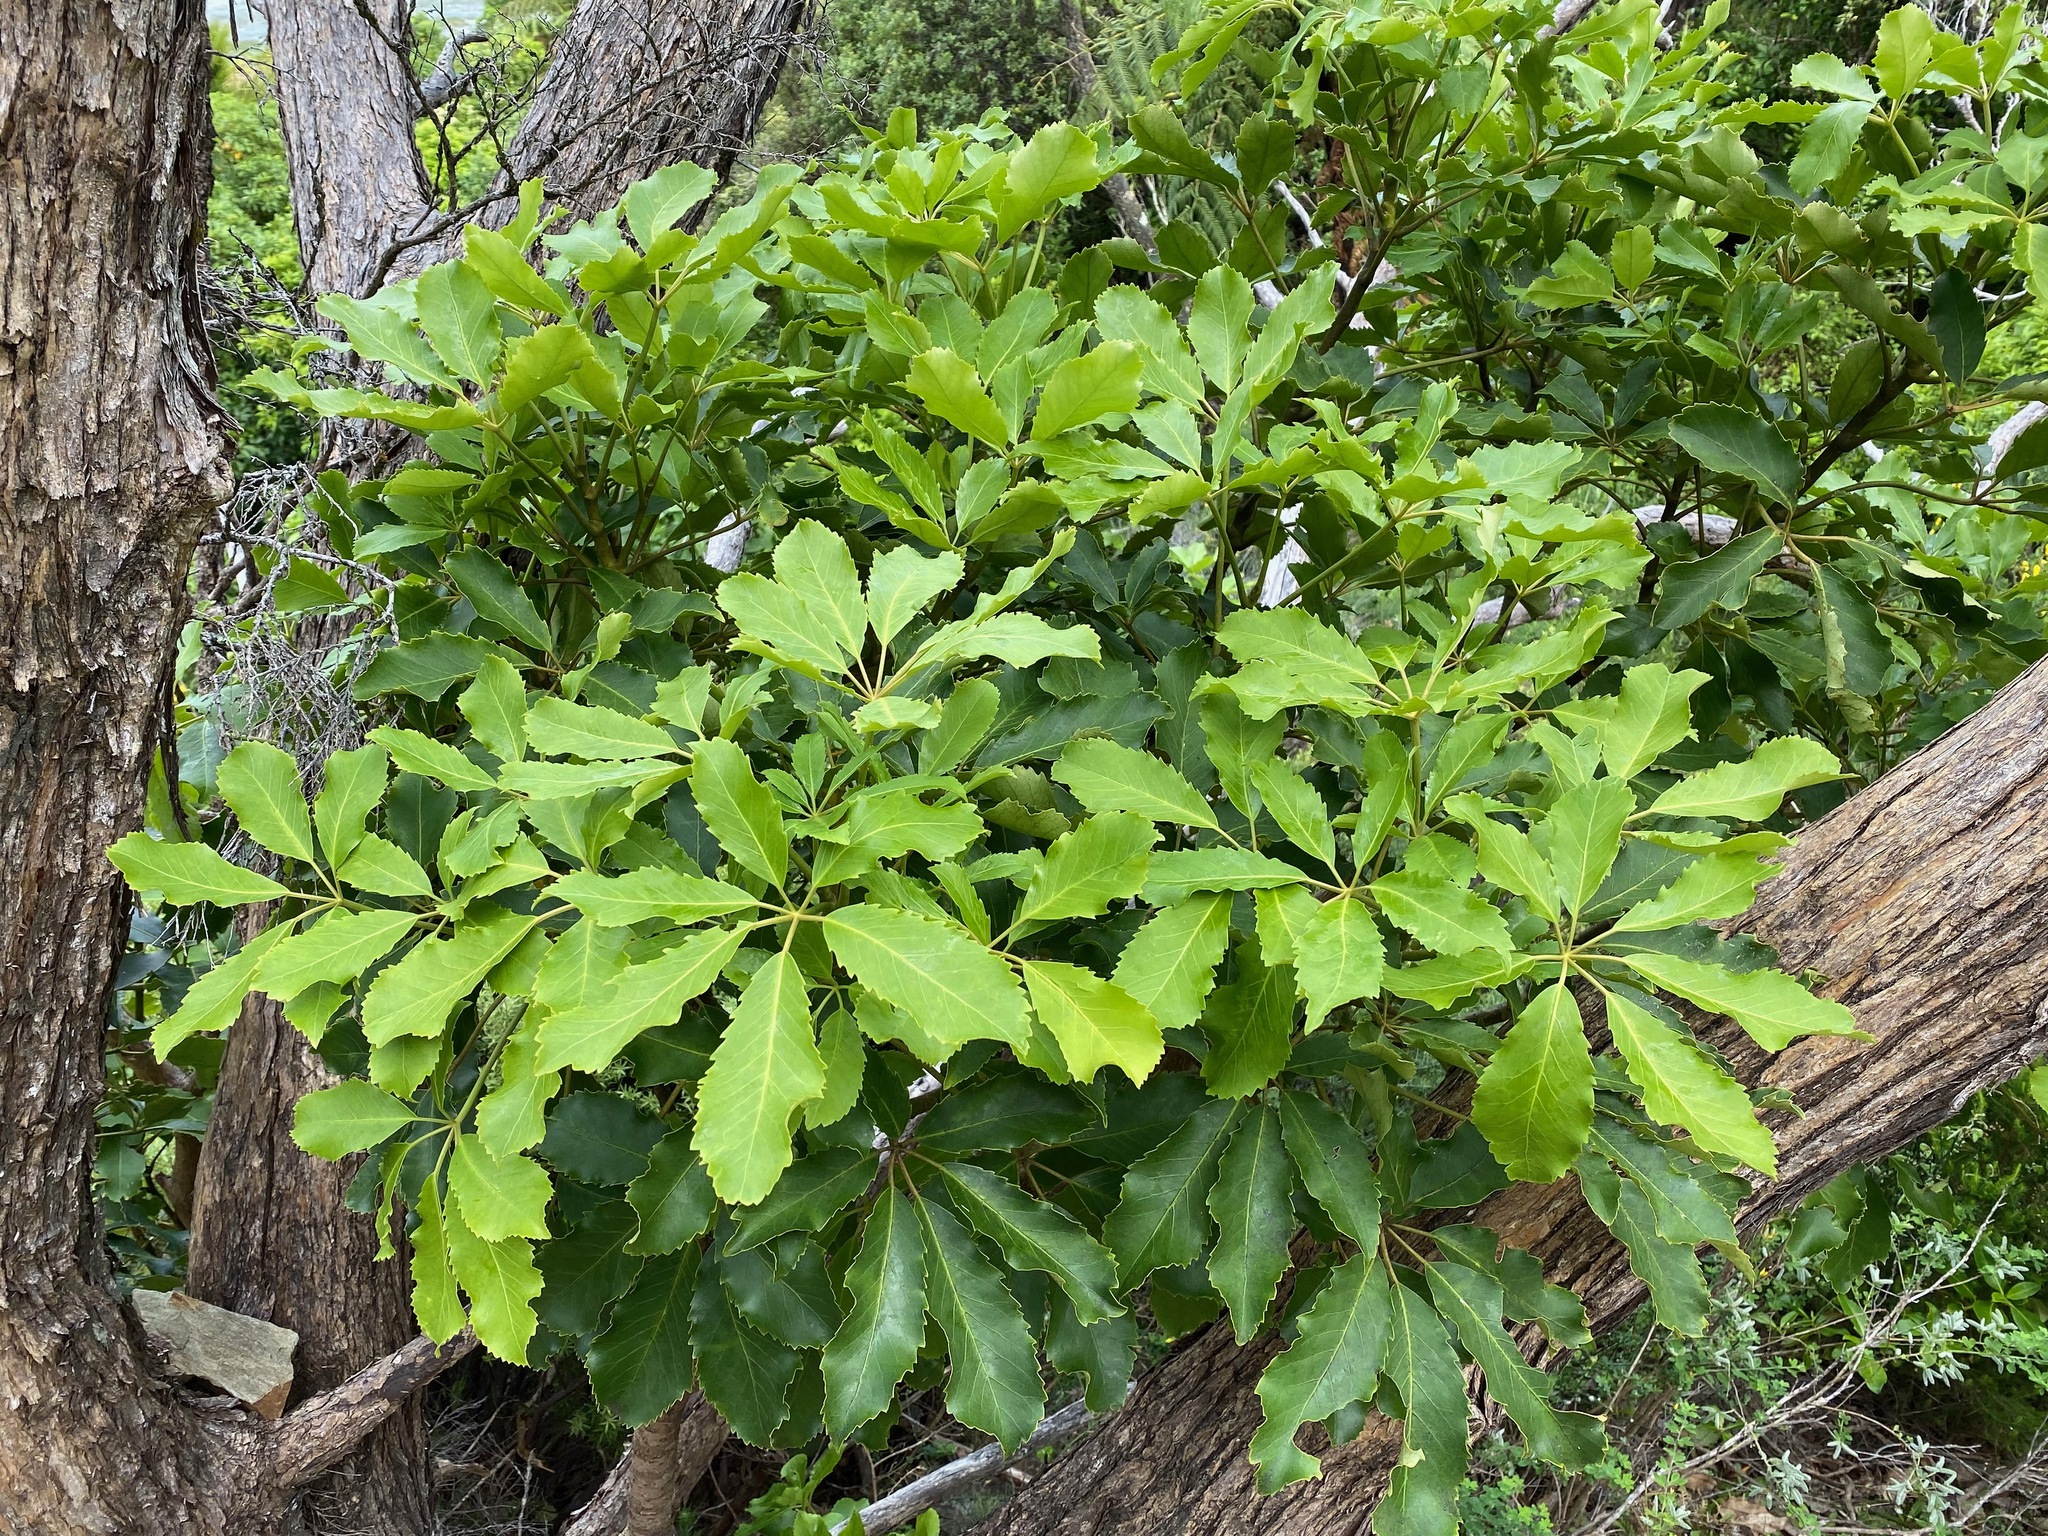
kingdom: Plantae
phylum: Tracheophyta
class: Magnoliopsida
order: Apiales
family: Araliaceae
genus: Neopanax
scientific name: Neopanax arboreus
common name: Five-fingers
